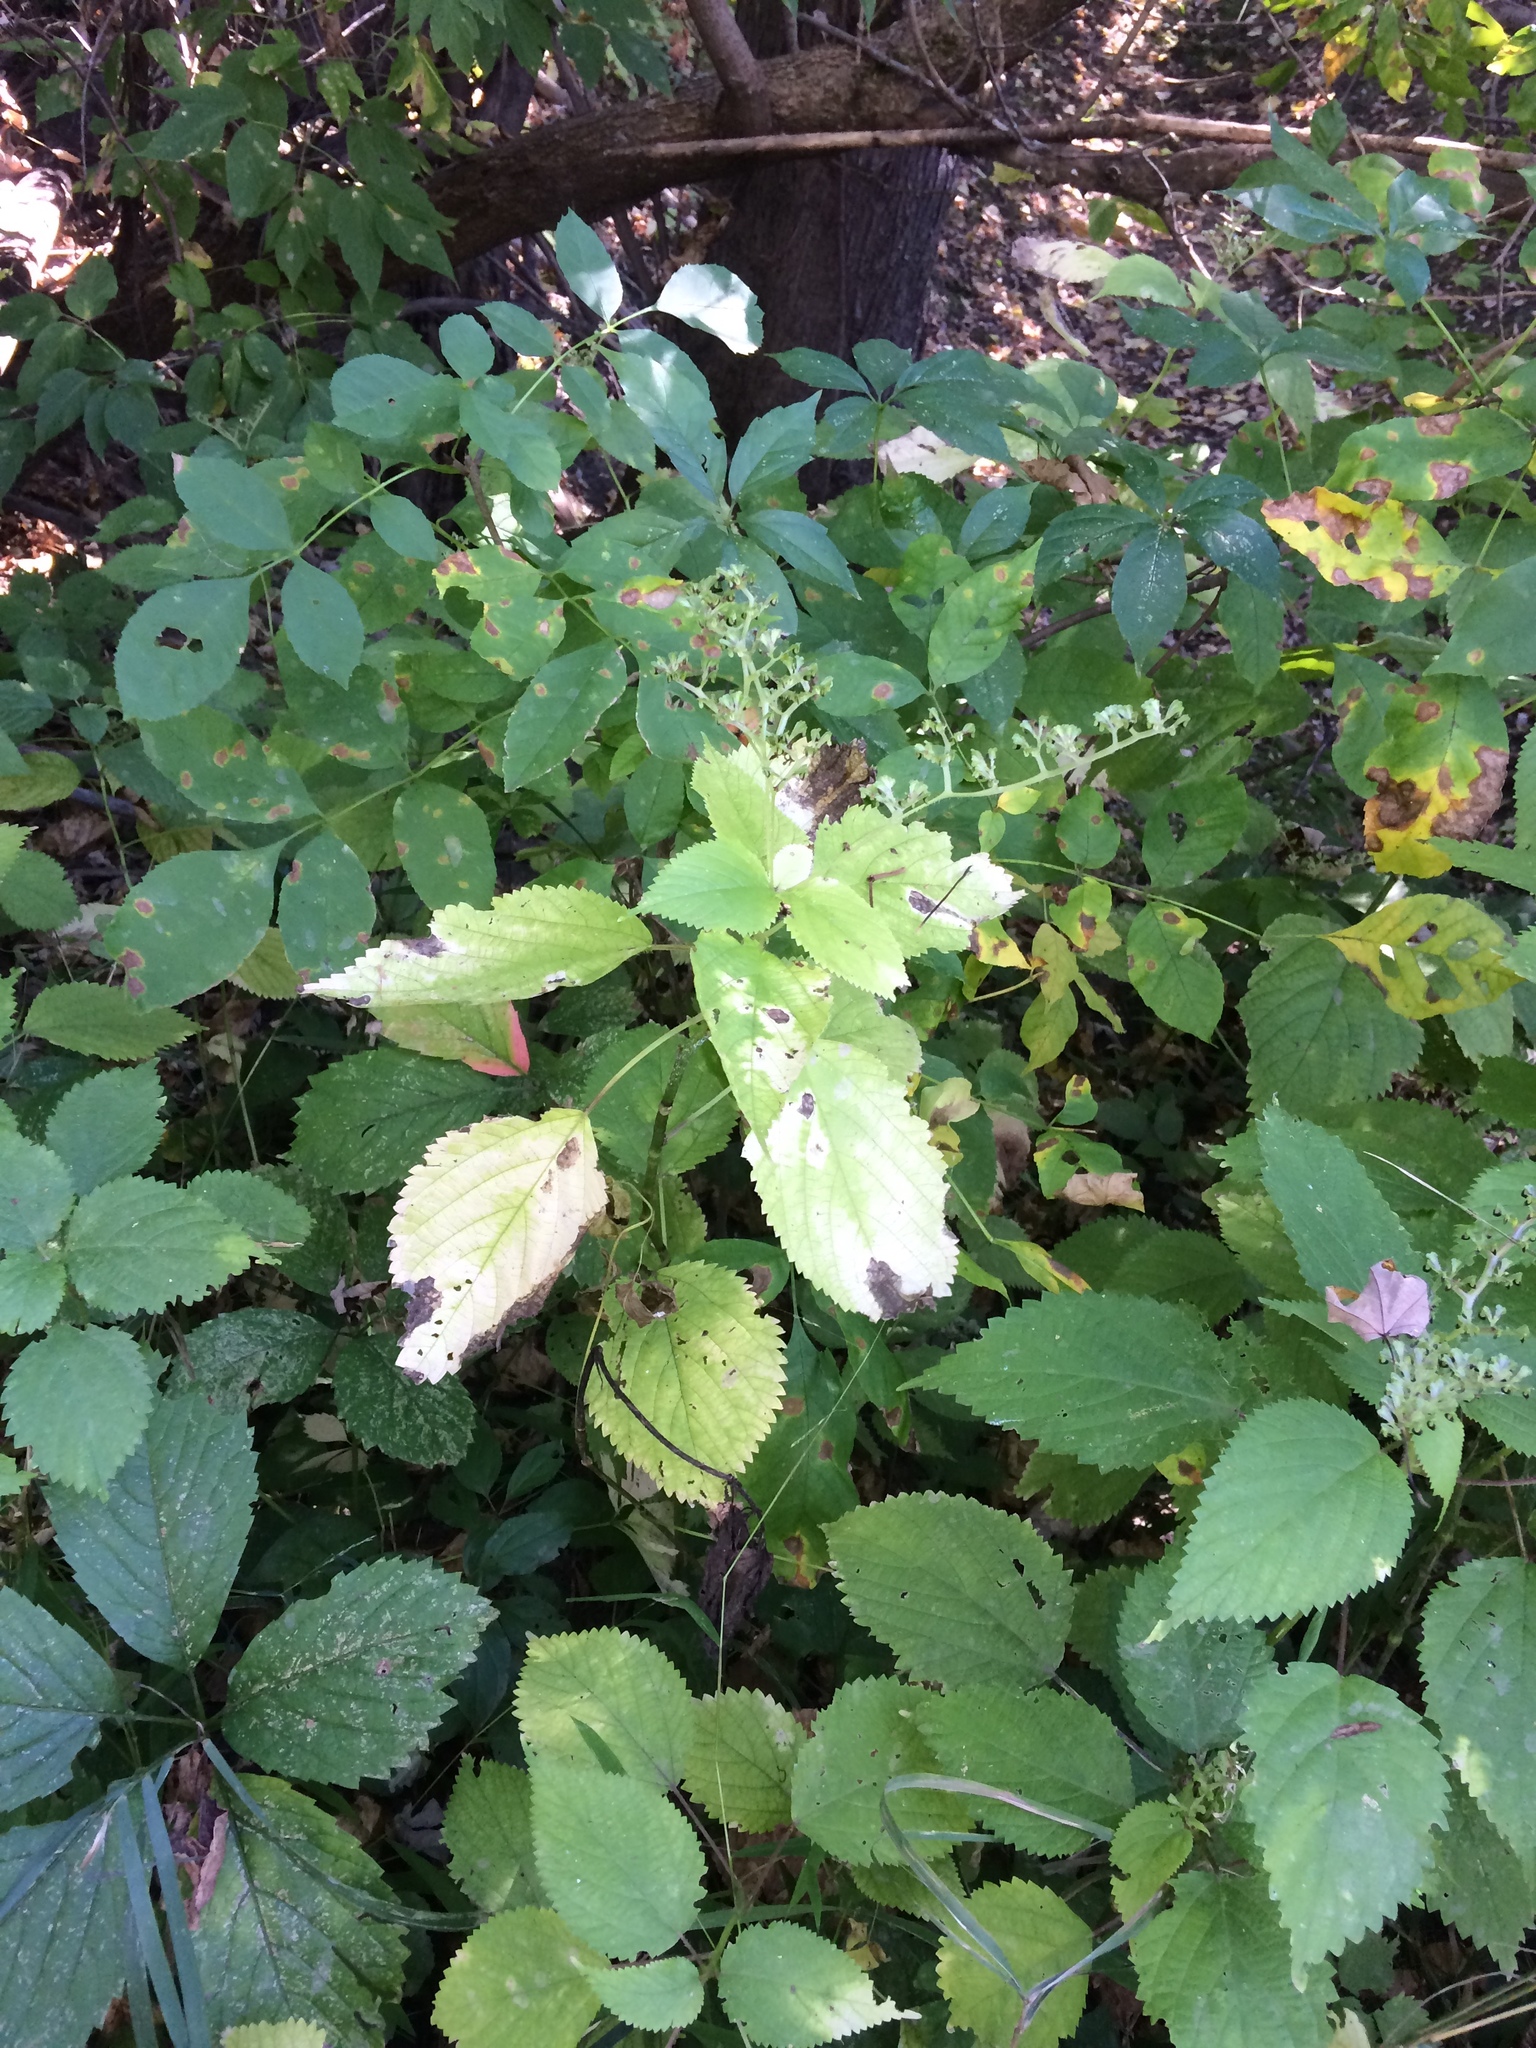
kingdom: Plantae
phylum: Tracheophyta
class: Magnoliopsida
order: Rosales
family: Urticaceae
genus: Laportea
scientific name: Laportea canadensis
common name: Canada nettle
